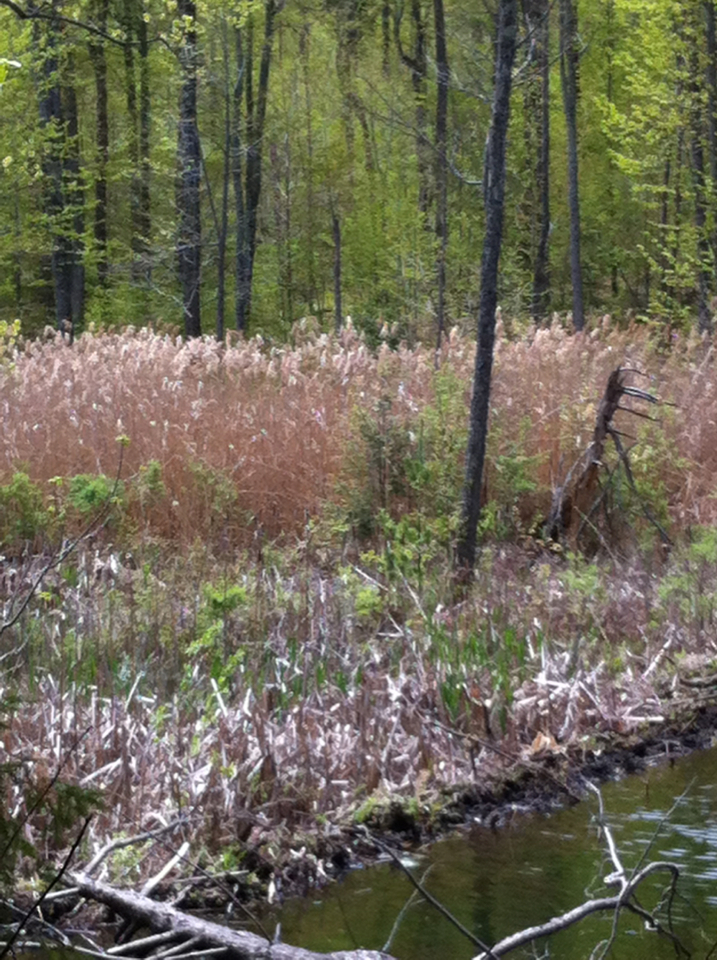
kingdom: Plantae
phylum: Tracheophyta
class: Liliopsida
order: Poales
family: Poaceae
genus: Phragmites
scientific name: Phragmites australis
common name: Common reed
